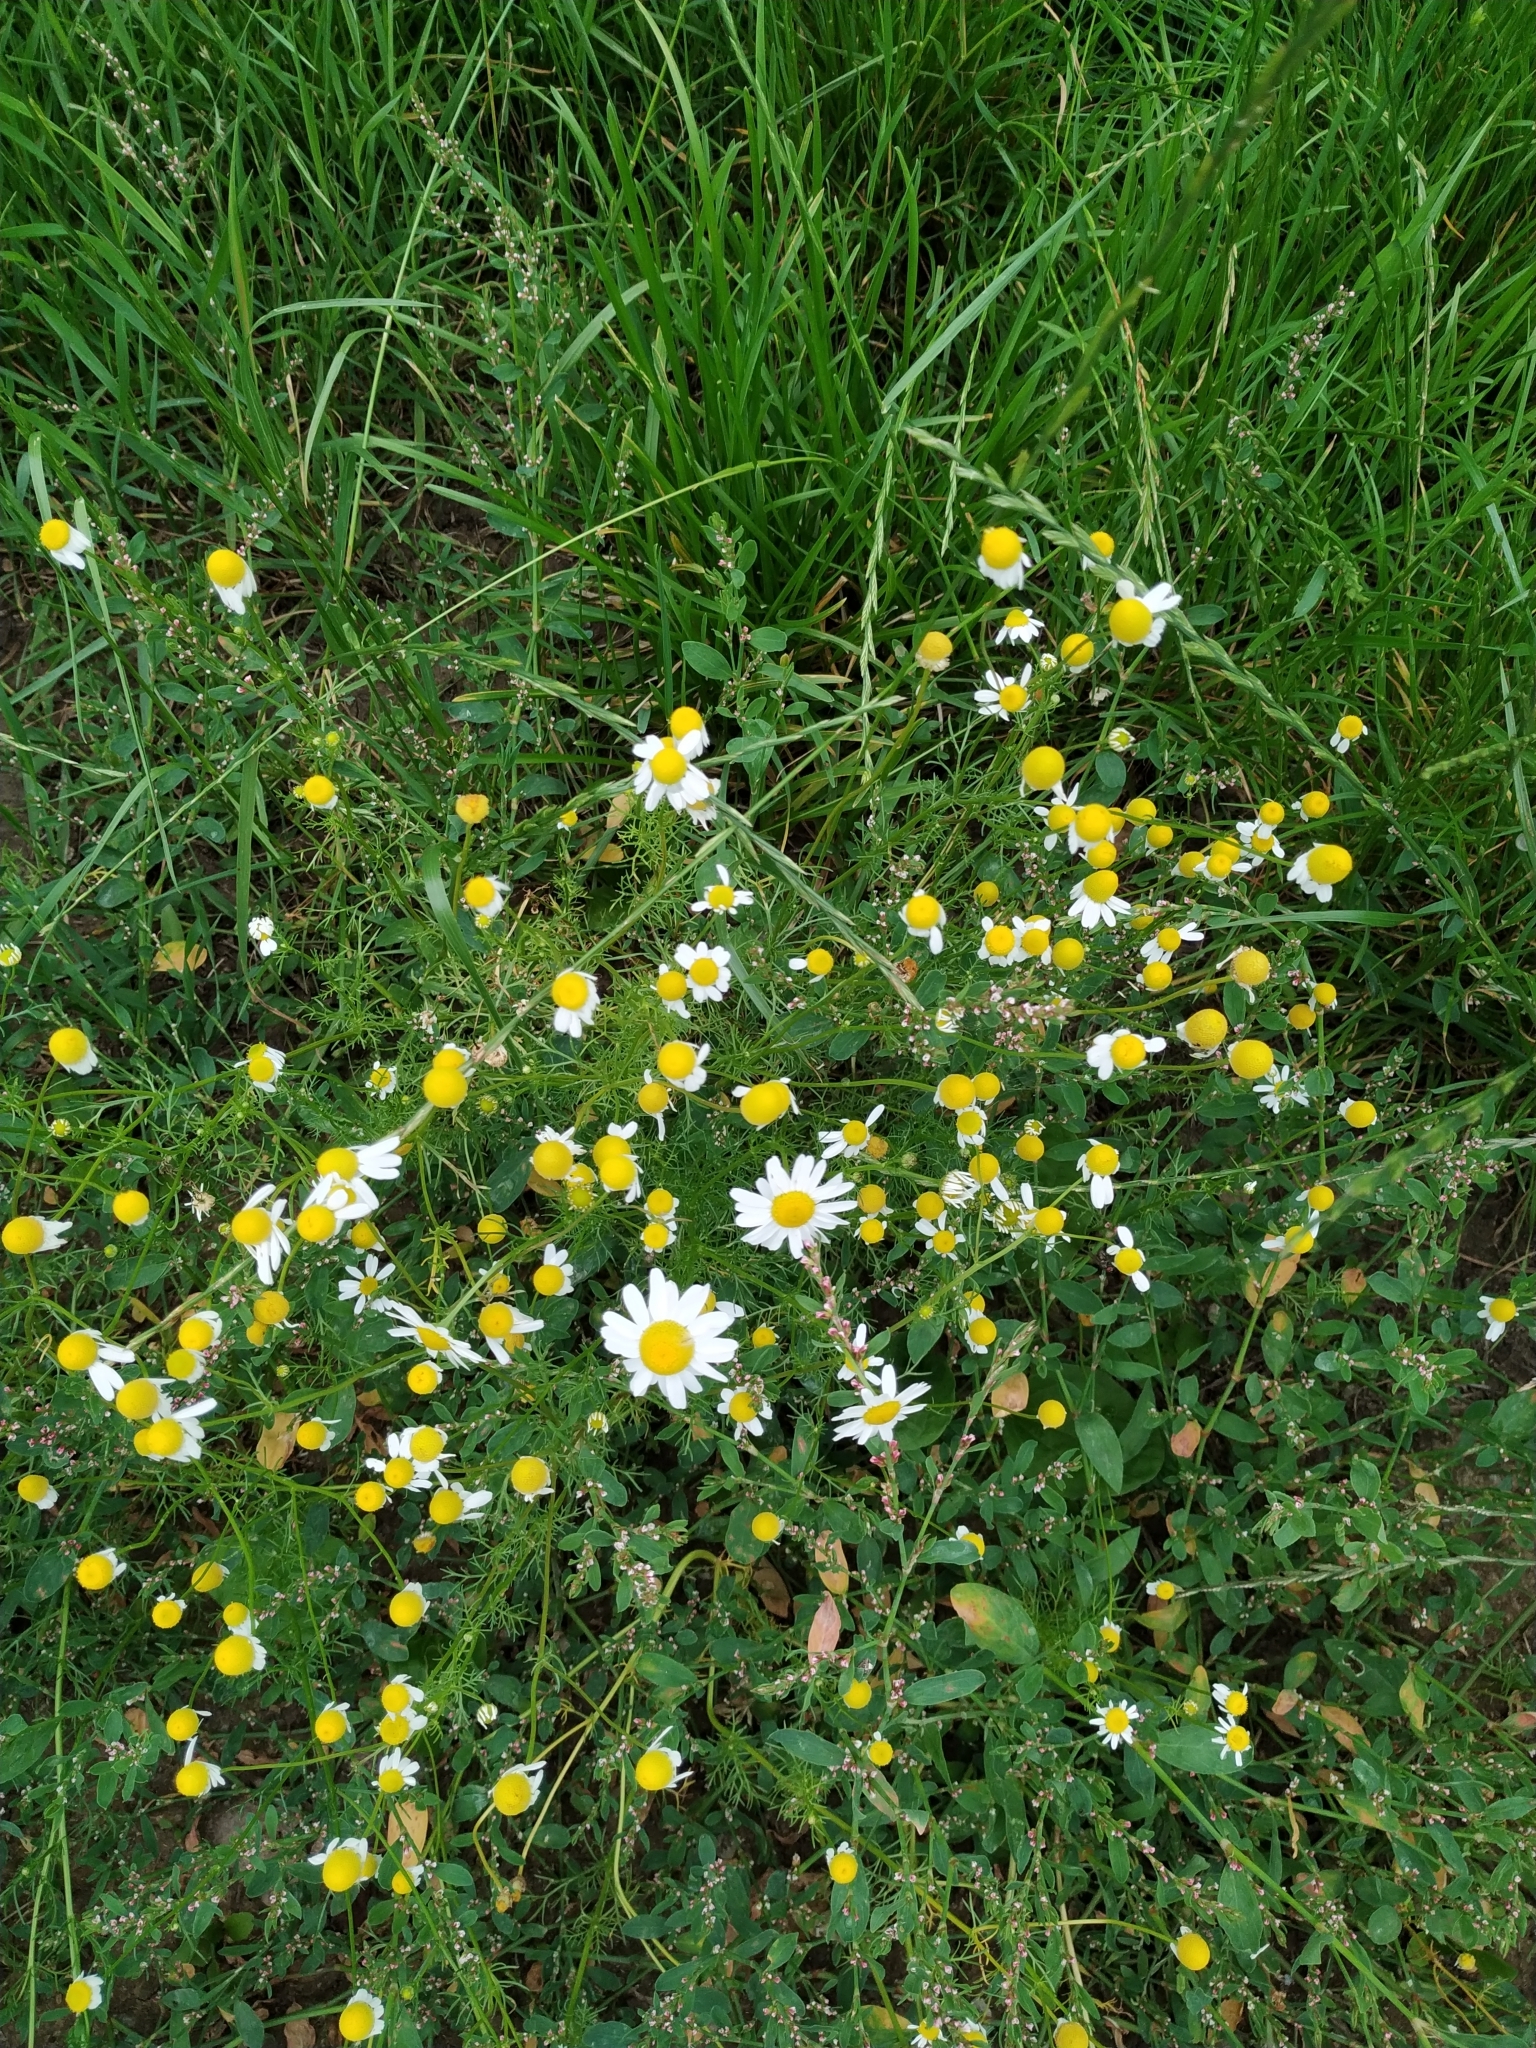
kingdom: Plantae
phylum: Tracheophyta
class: Magnoliopsida
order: Asterales
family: Asteraceae
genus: Matricaria
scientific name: Matricaria chamomilla
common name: Scented mayweed
